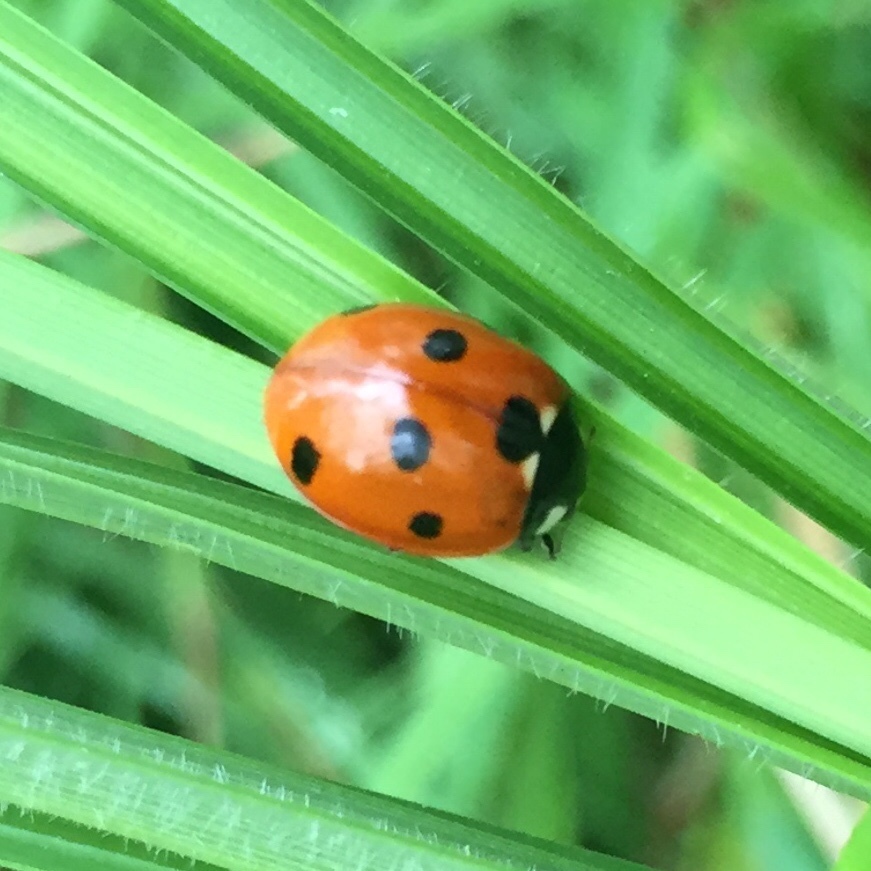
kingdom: Animalia
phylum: Arthropoda
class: Insecta
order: Coleoptera
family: Coccinellidae
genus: Coccinella
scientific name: Coccinella septempunctata
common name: Sevenspotted lady beetle
